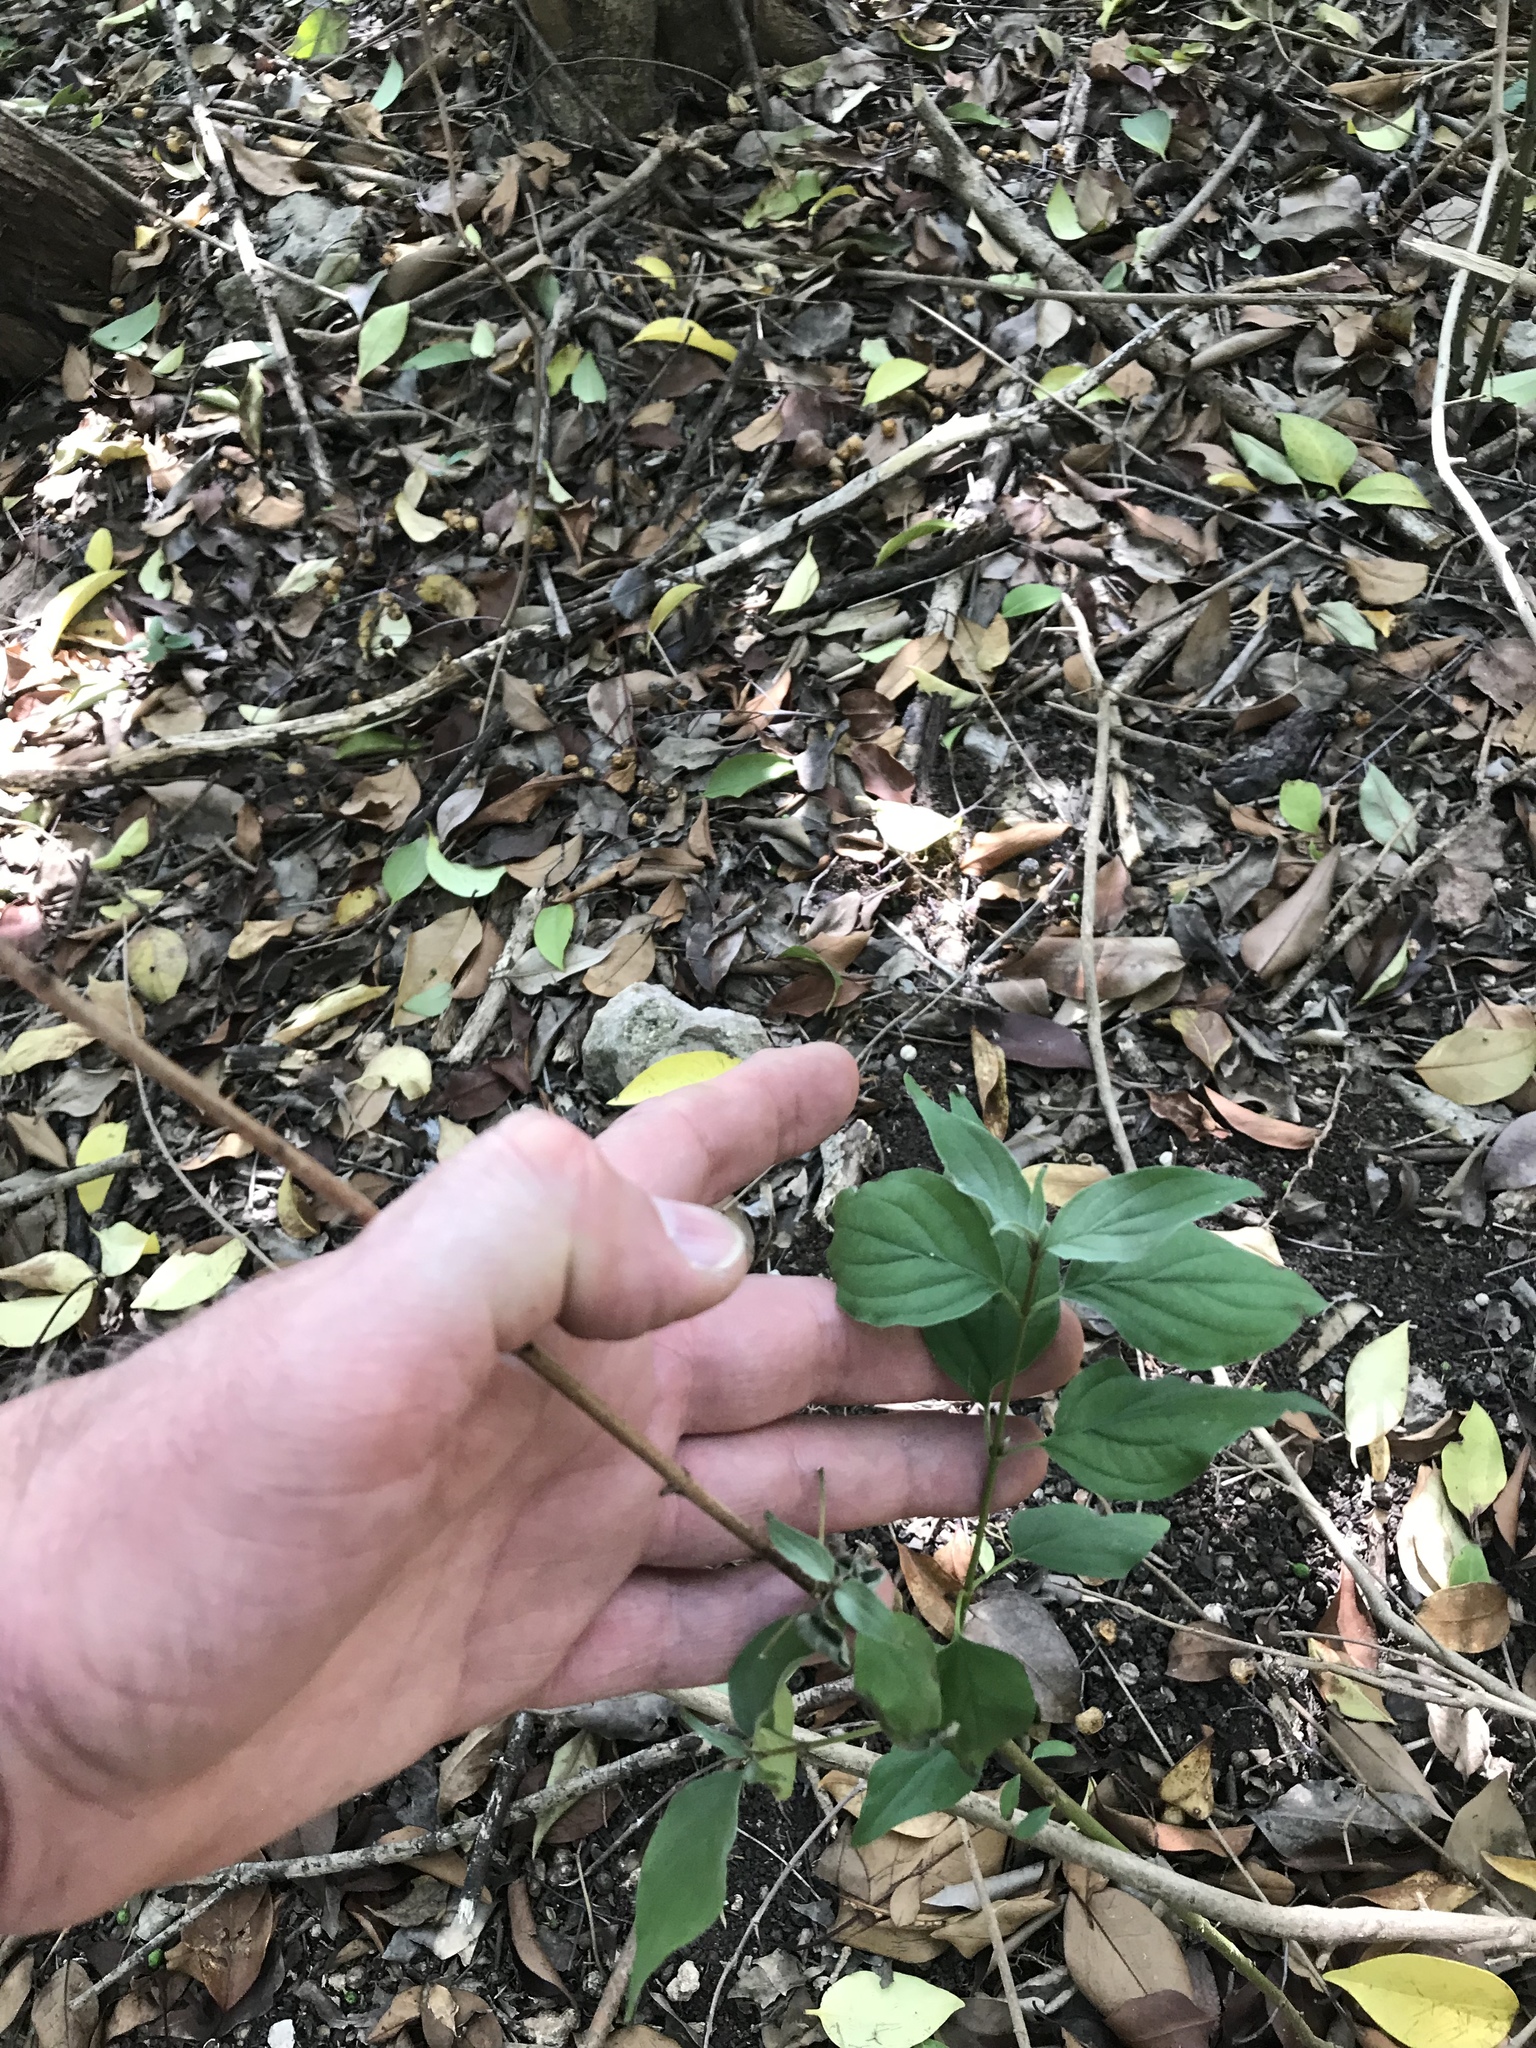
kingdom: Plantae
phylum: Tracheophyta
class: Magnoliopsida
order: Cornales
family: Cornaceae
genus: Cornus
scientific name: Cornus drummondii
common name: Rough-leaf dogwood
